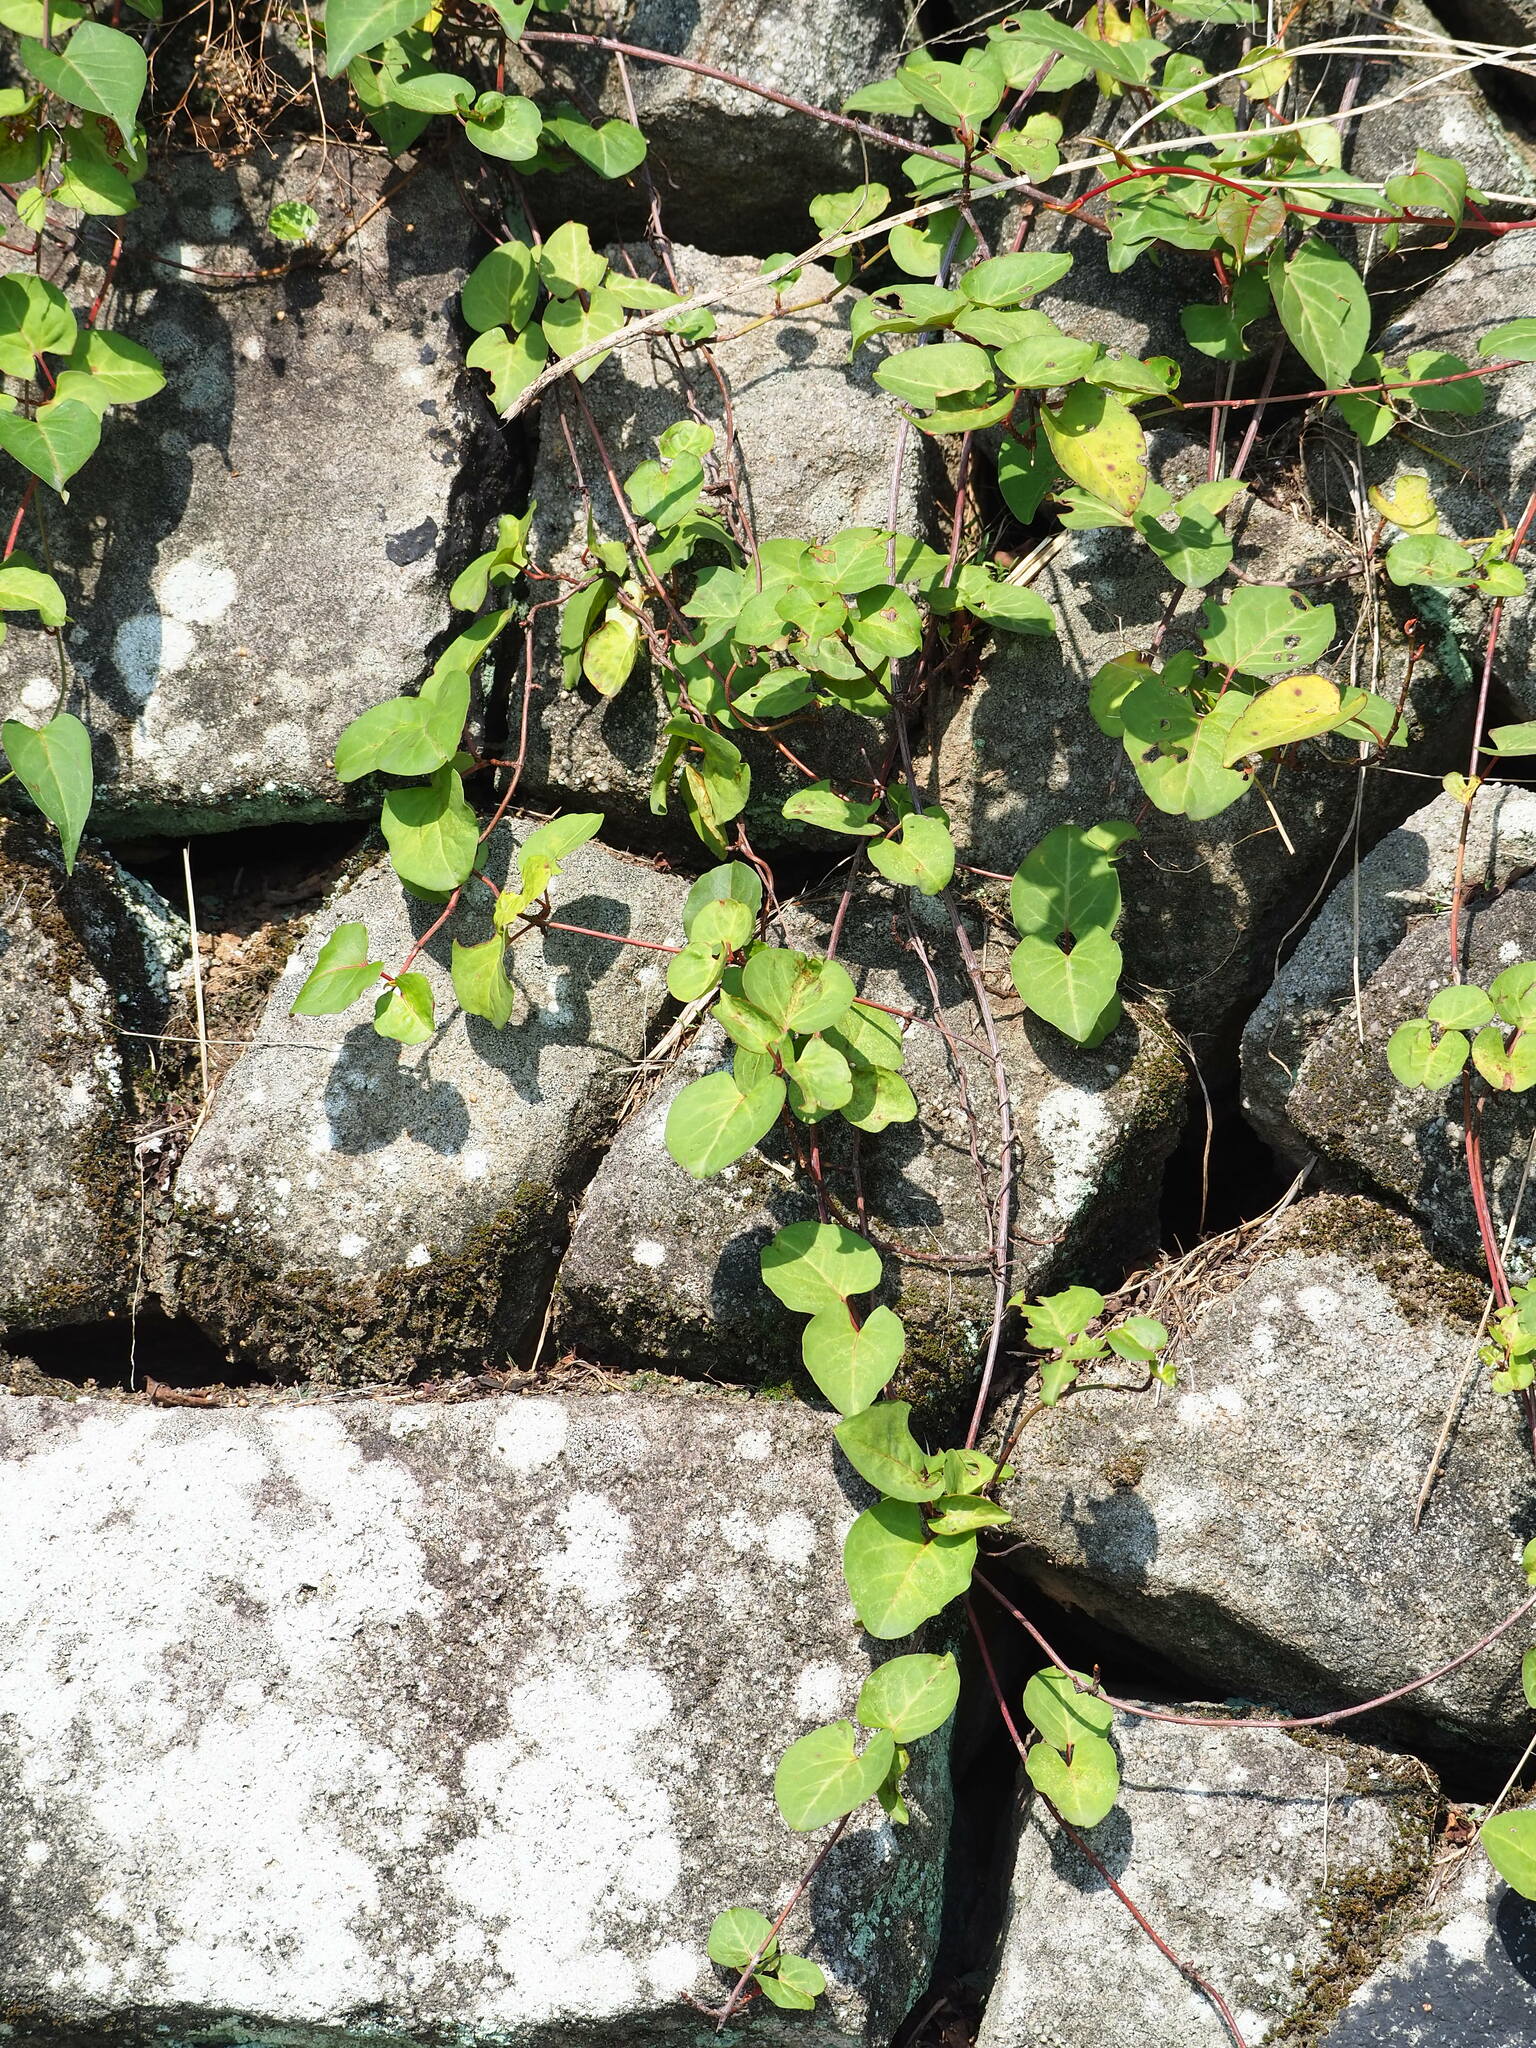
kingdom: Plantae
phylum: Tracheophyta
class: Magnoliopsida
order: Caryophyllales
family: Polygonaceae
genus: Reynoutria
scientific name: Reynoutria multiflora
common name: Chinese fleeceflower
